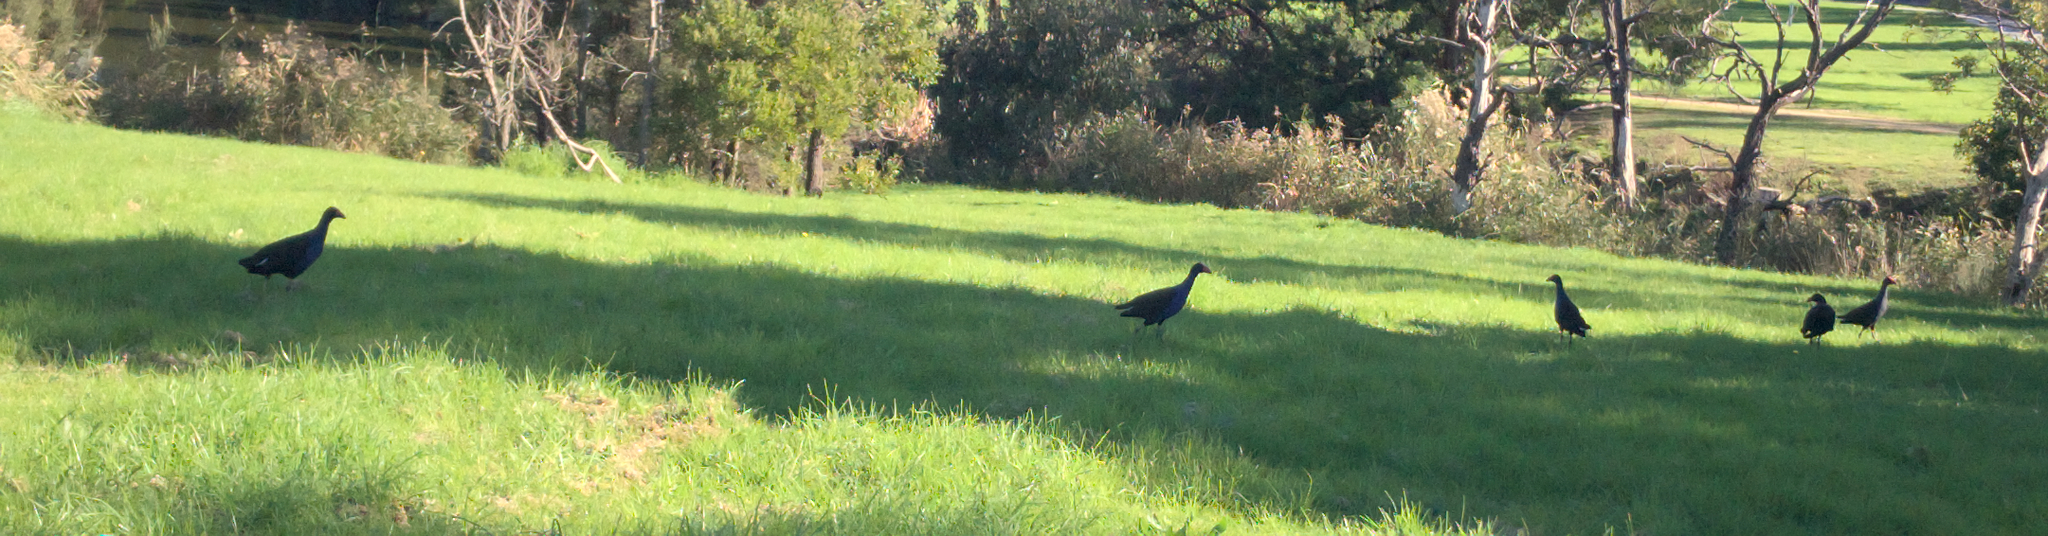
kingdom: Animalia
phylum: Chordata
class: Aves
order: Gruiformes
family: Rallidae
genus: Porphyrio
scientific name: Porphyrio melanotus
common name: Australasian swamphen
